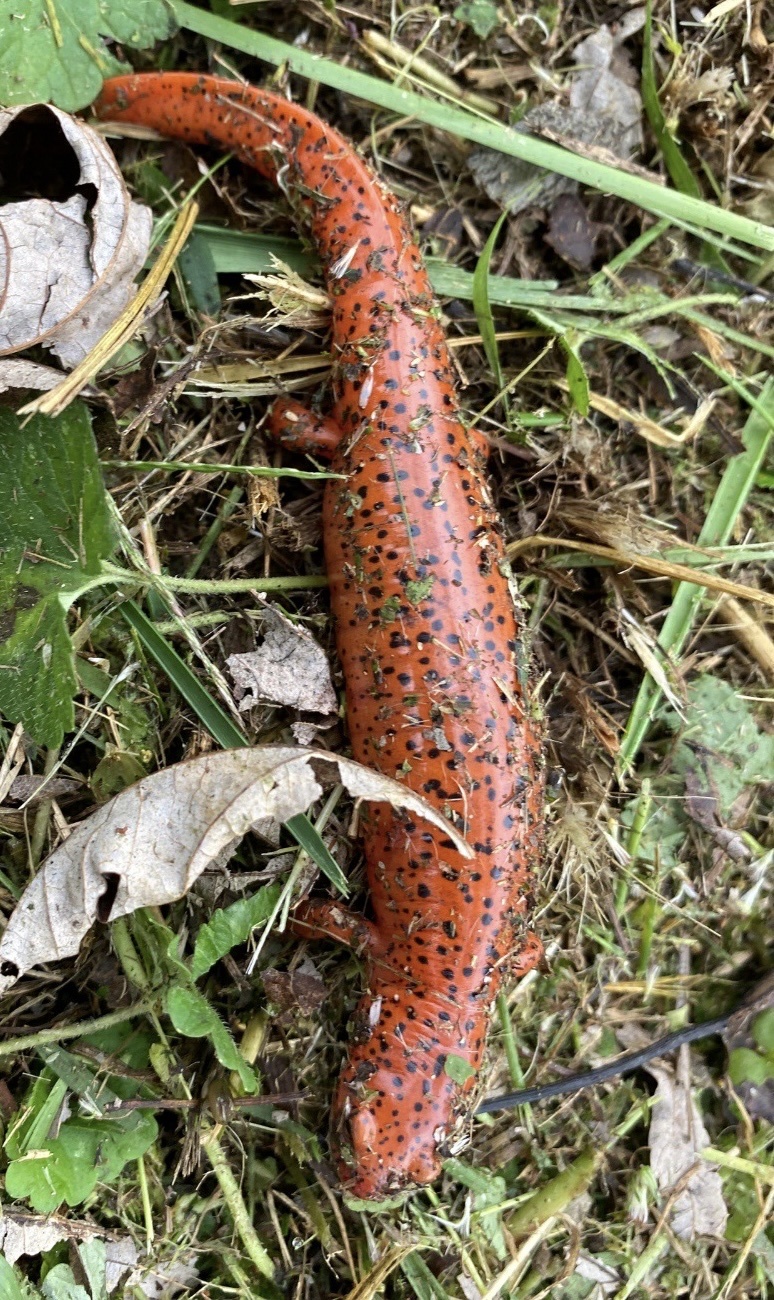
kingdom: Animalia
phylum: Chordata
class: Amphibia
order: Caudata
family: Plethodontidae
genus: Pseudotriton
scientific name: Pseudotriton ruber
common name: Red salamander
